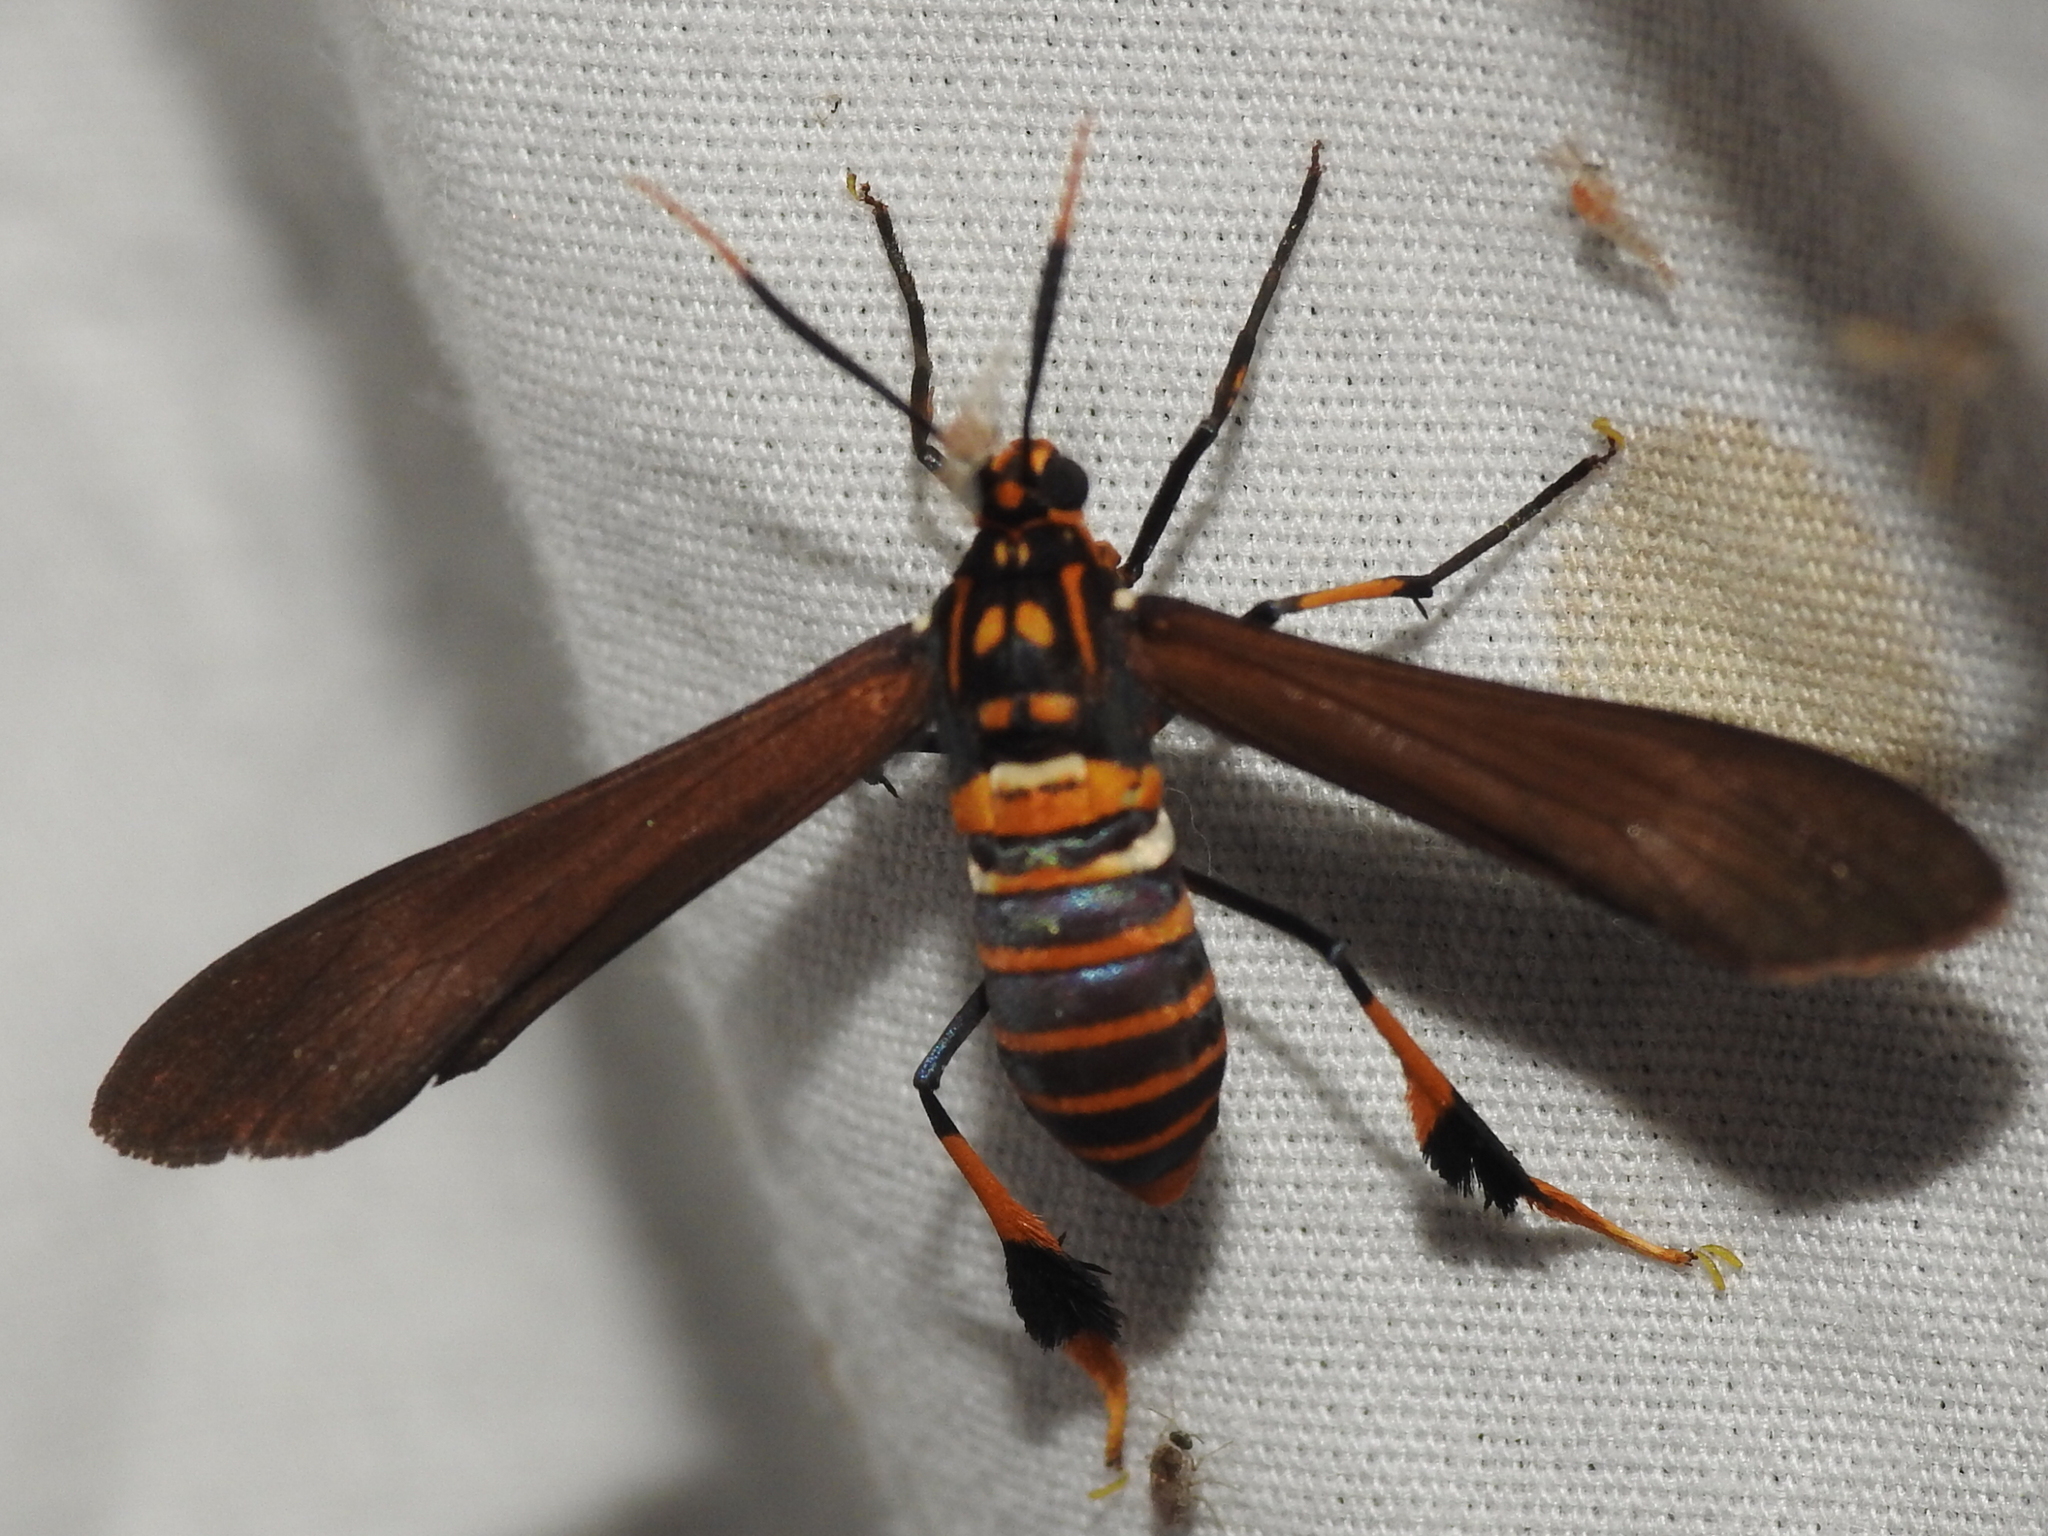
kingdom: Animalia
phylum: Arthropoda
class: Insecta
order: Lepidoptera
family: Erebidae
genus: Horama
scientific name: Horama panthalon
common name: Texas wasp moth
